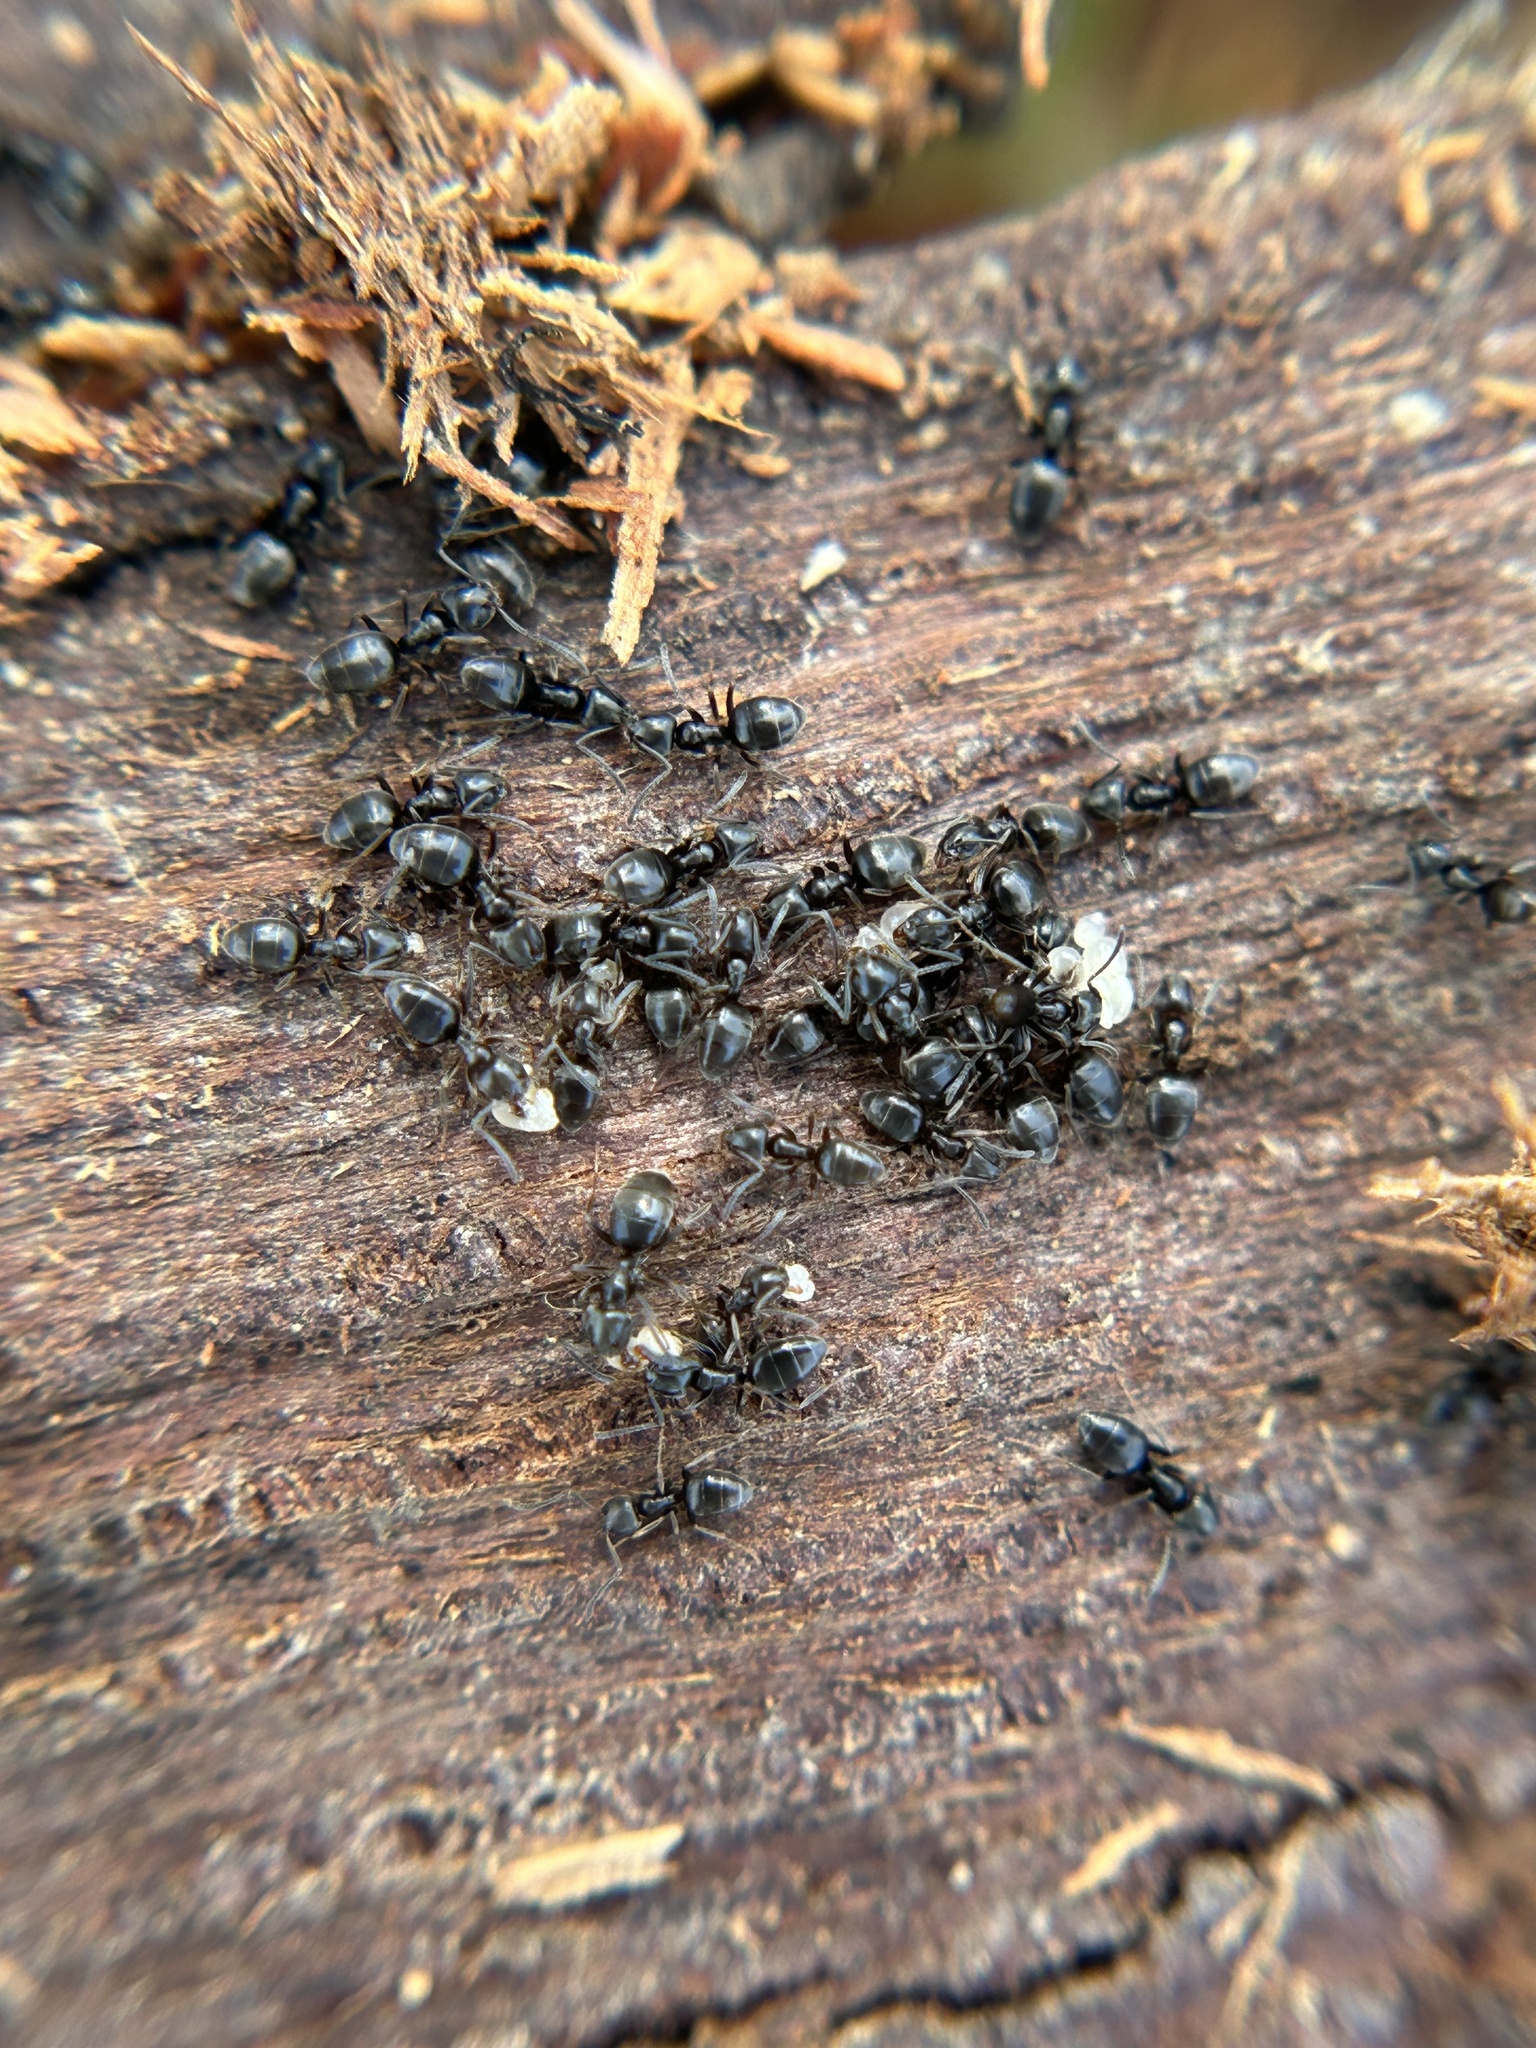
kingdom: Animalia
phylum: Arthropoda
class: Insecta
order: Hymenoptera
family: Formicidae
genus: Tapinoma
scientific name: Tapinoma sessile
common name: Odorous house ant
